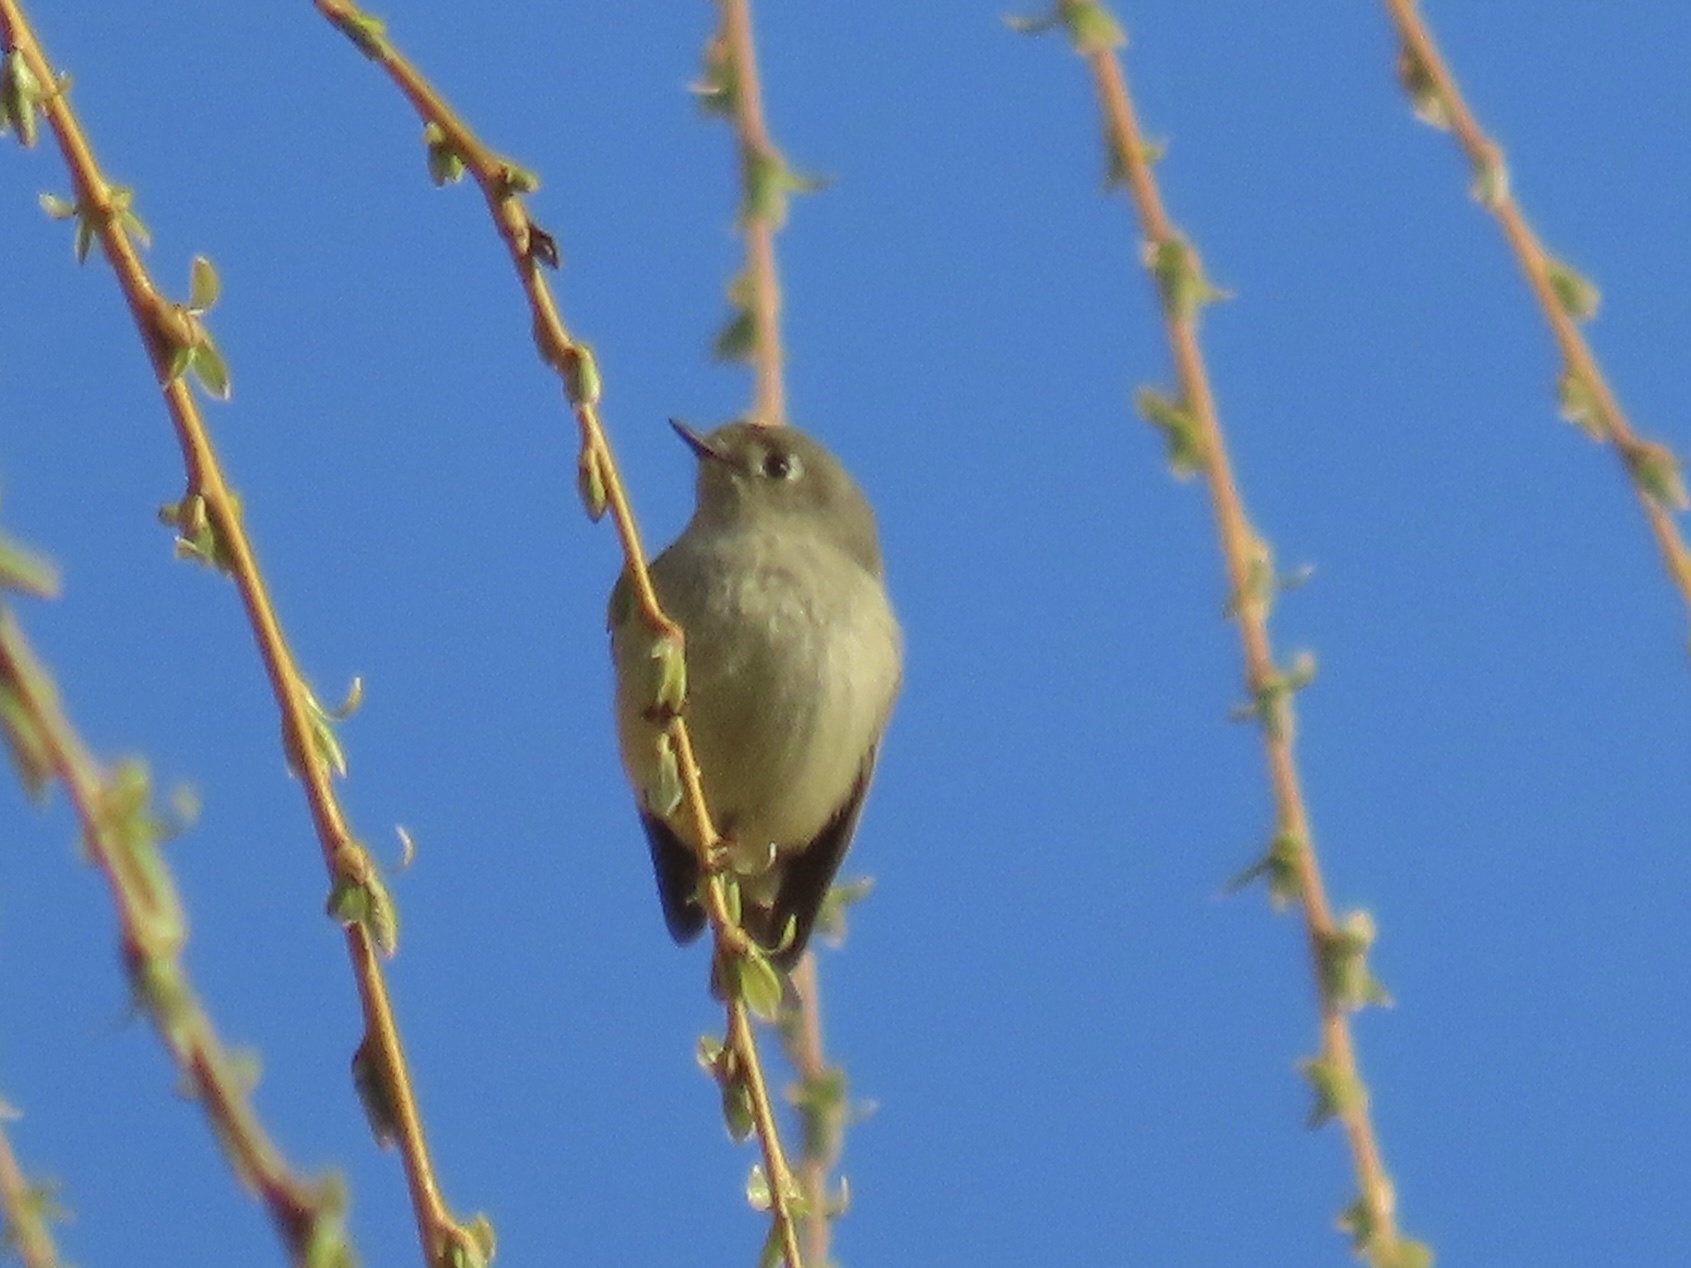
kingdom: Animalia
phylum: Chordata
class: Aves
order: Passeriformes
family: Regulidae
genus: Regulus
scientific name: Regulus calendula
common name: Ruby-crowned kinglet
